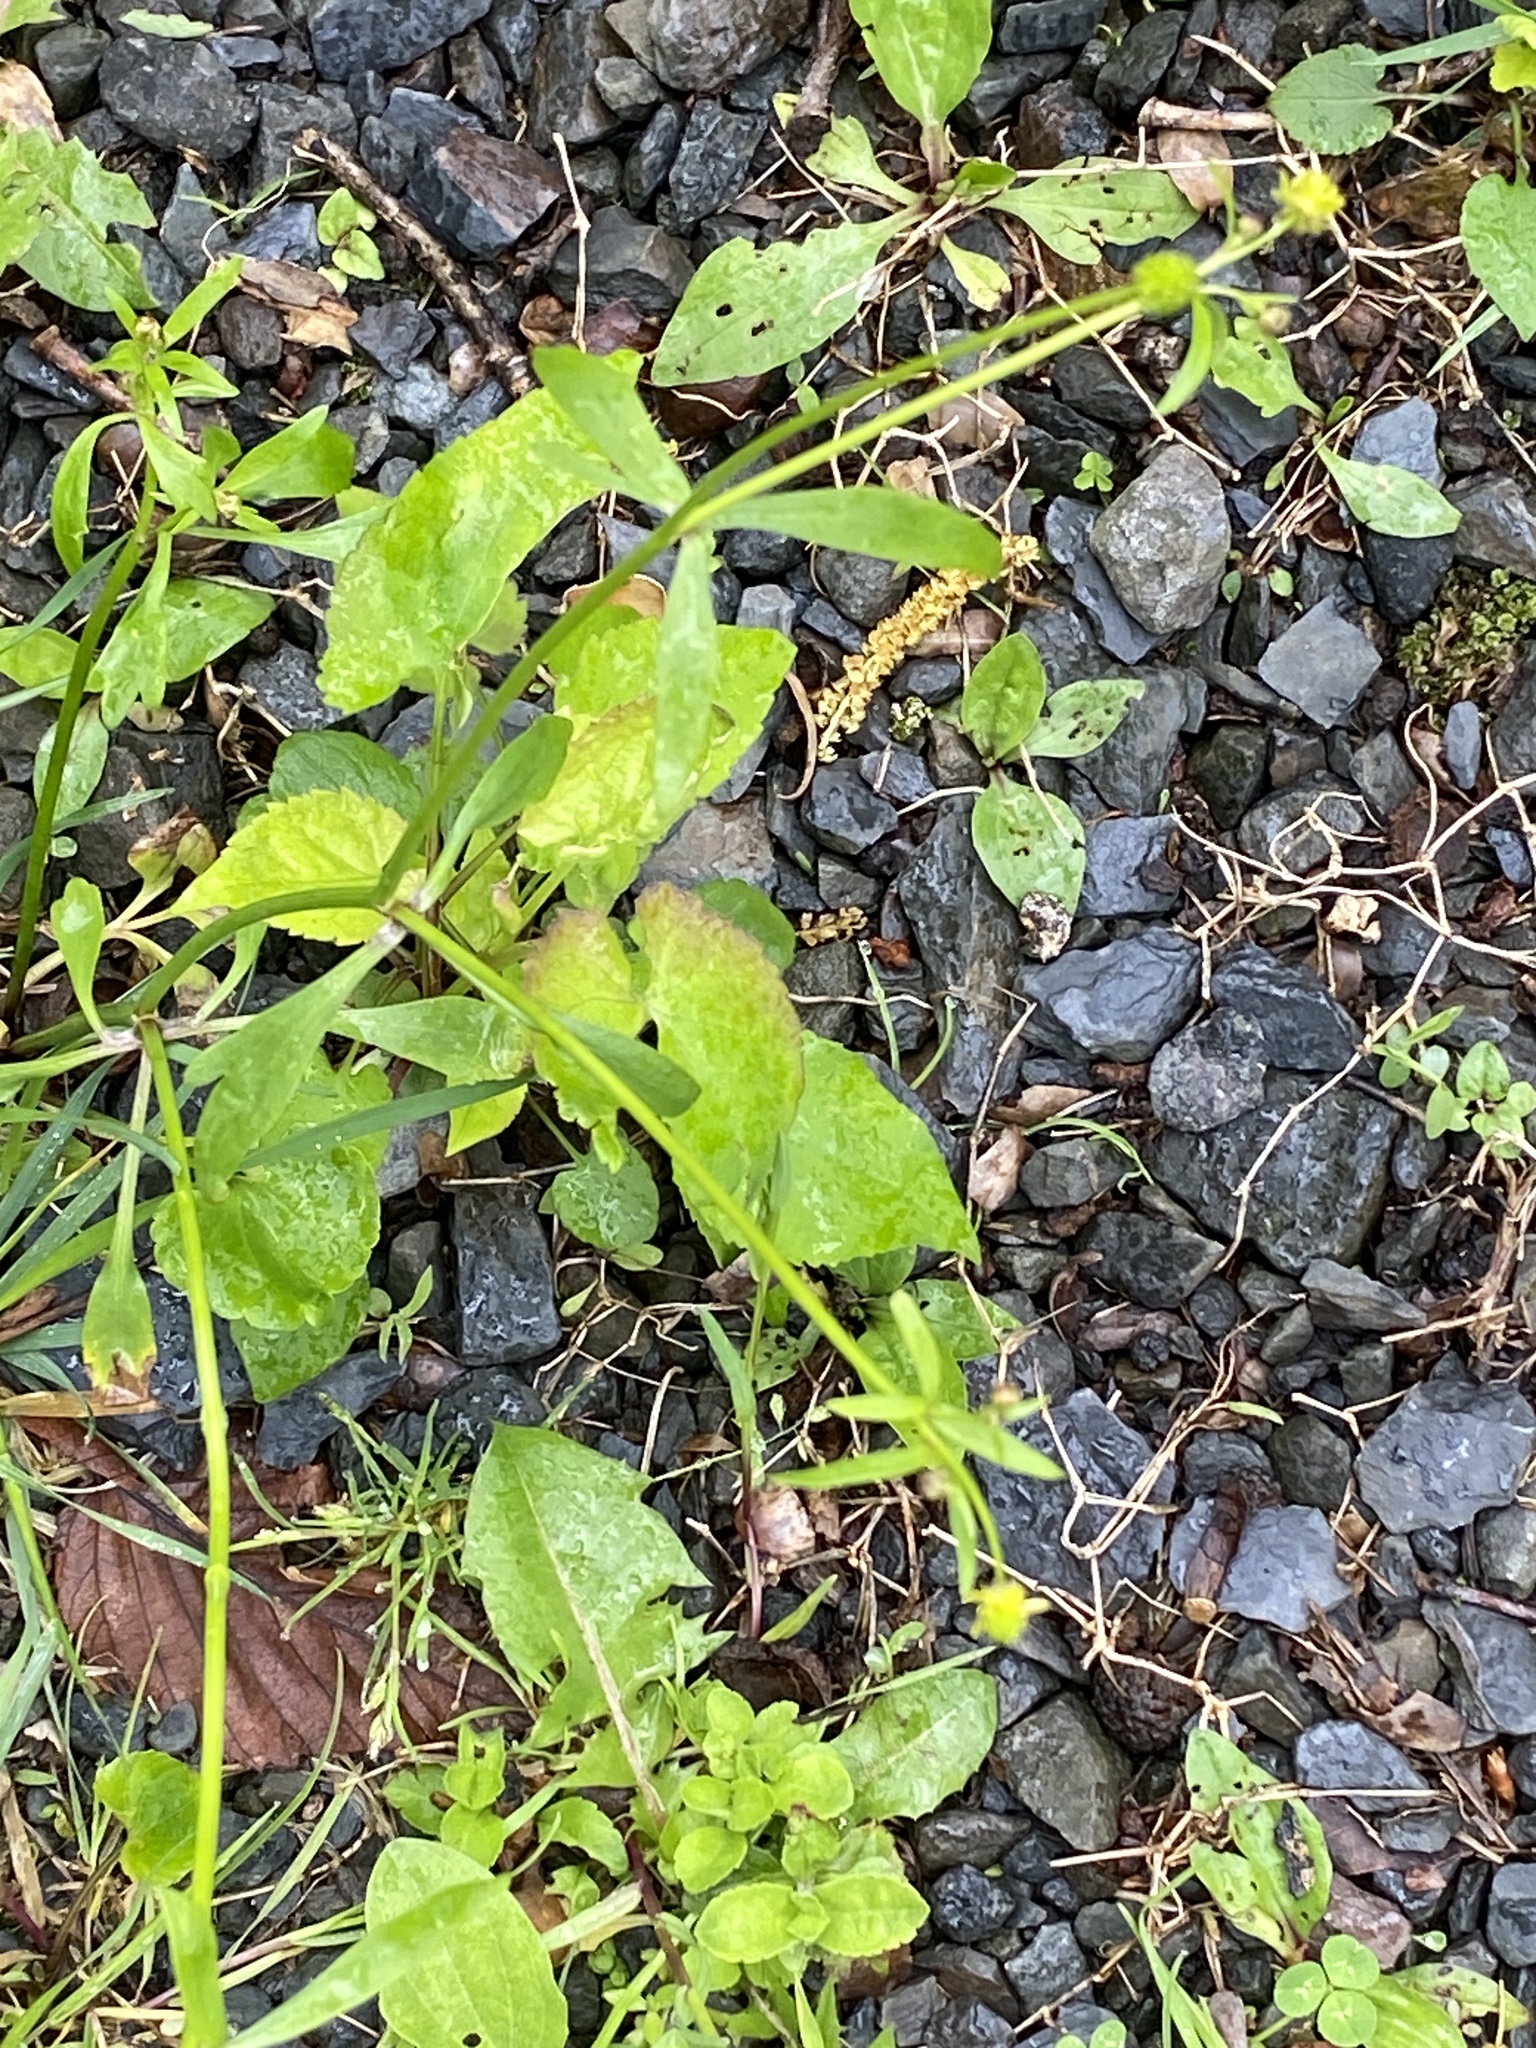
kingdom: Plantae
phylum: Tracheophyta
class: Magnoliopsida
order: Ranunculales
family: Ranunculaceae
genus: Ranunculus
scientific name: Ranunculus abortivus
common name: Early wood buttercup
